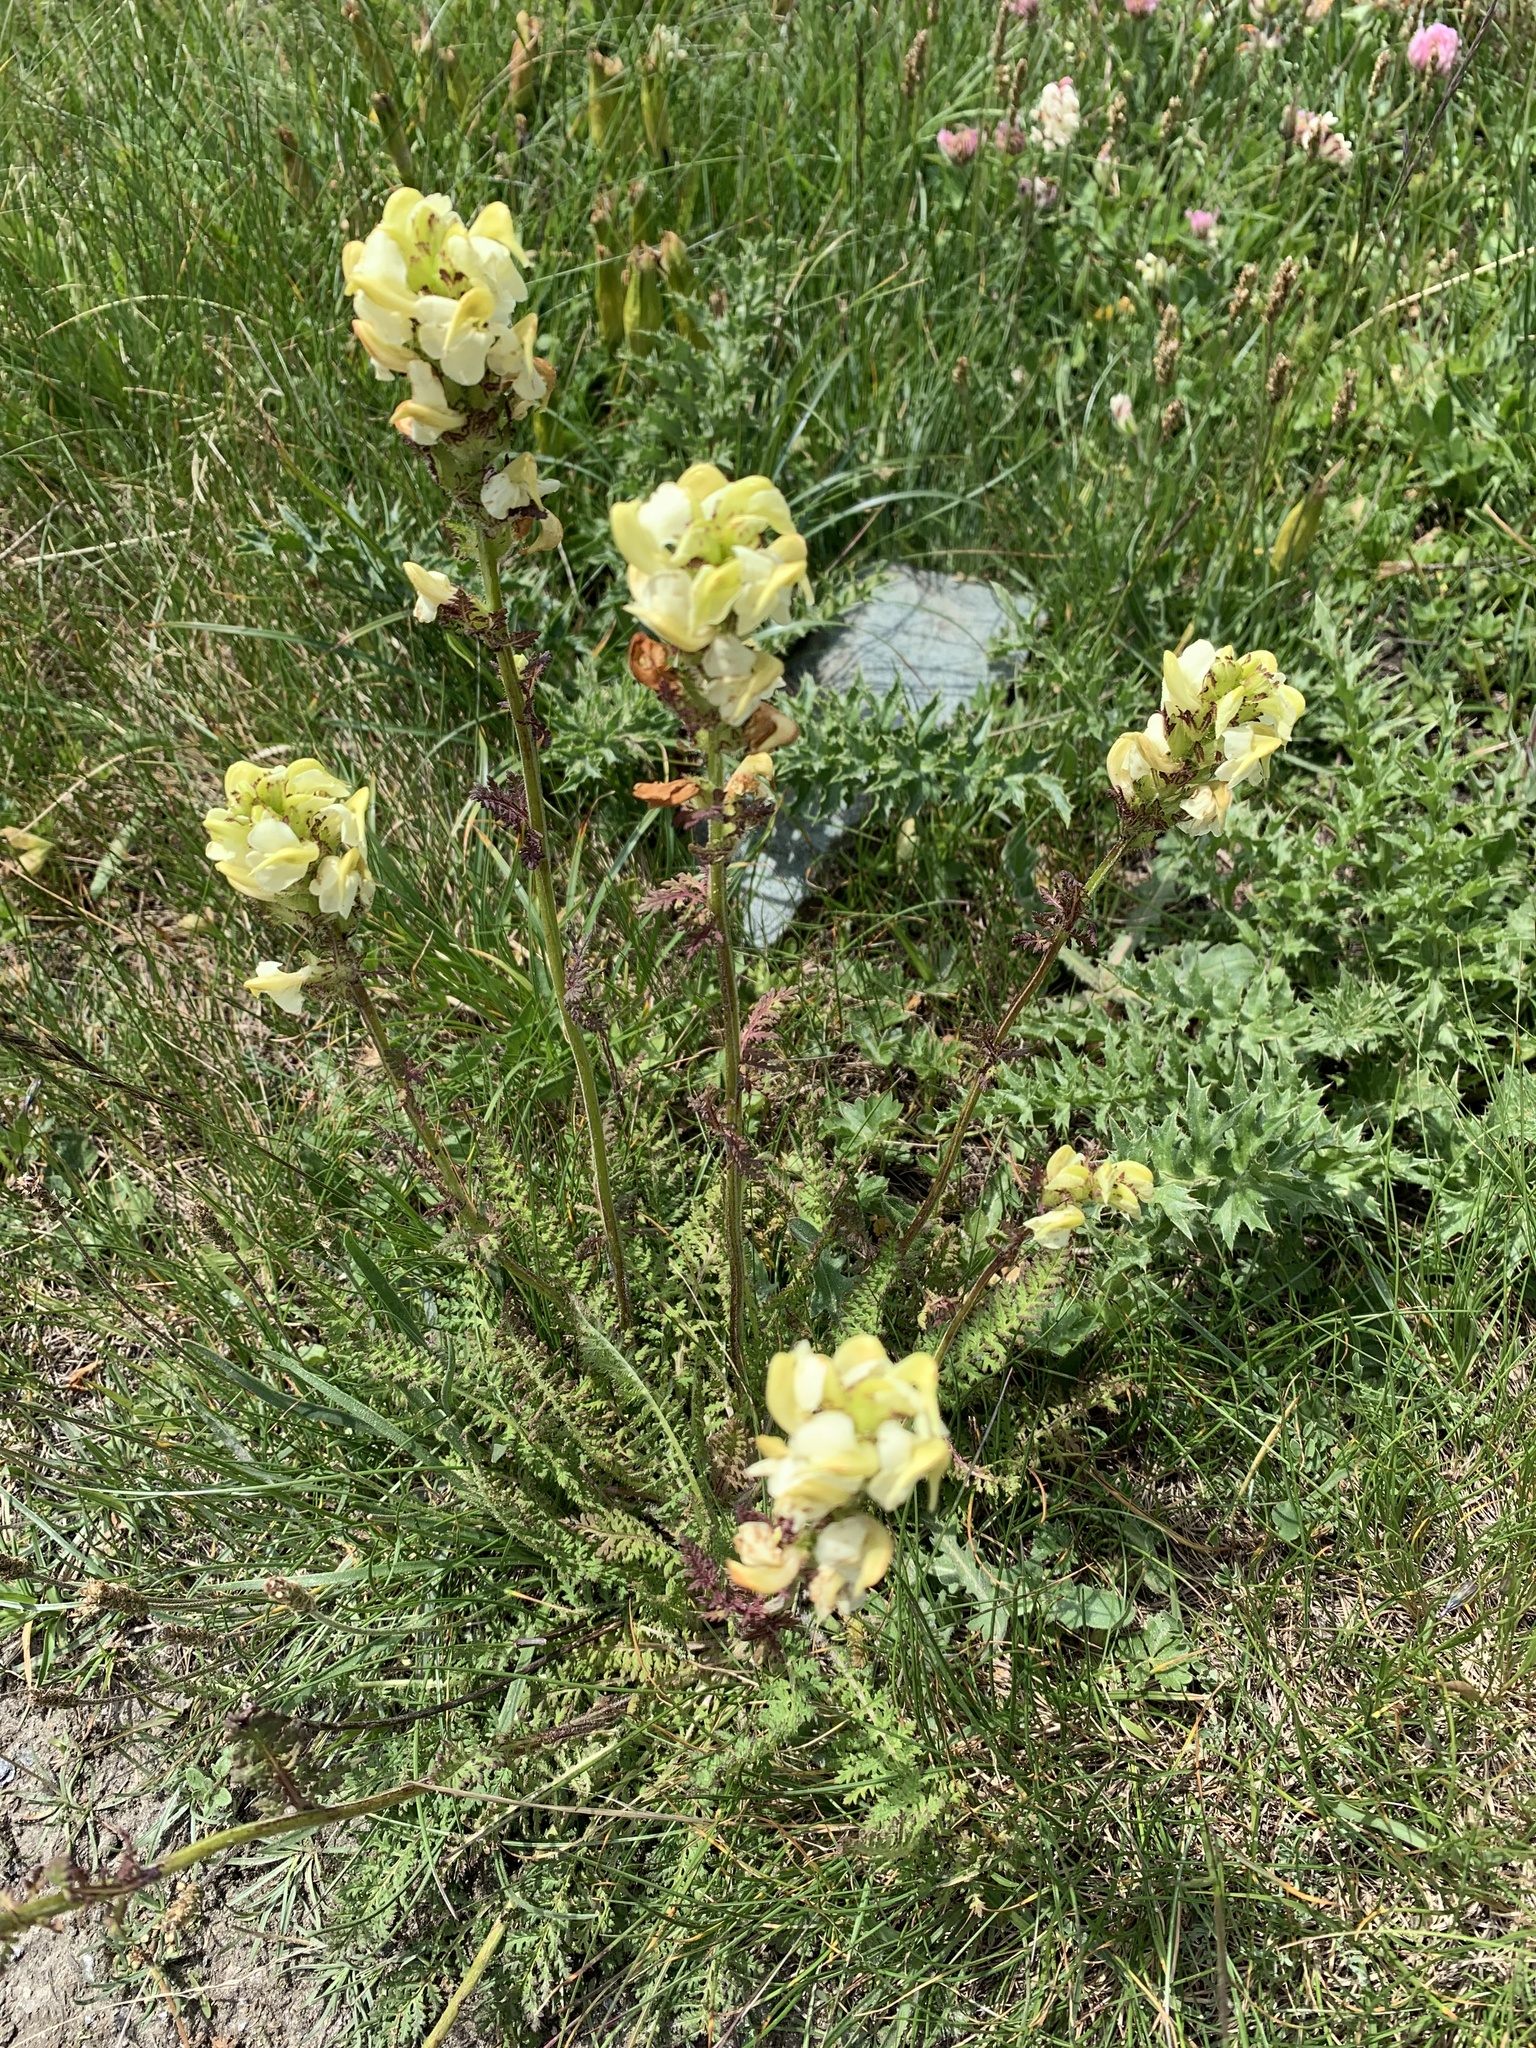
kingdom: Plantae
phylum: Tracheophyta
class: Magnoliopsida
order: Lamiales
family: Orobanchaceae
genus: Pedicularis
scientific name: Pedicularis tuberosa
